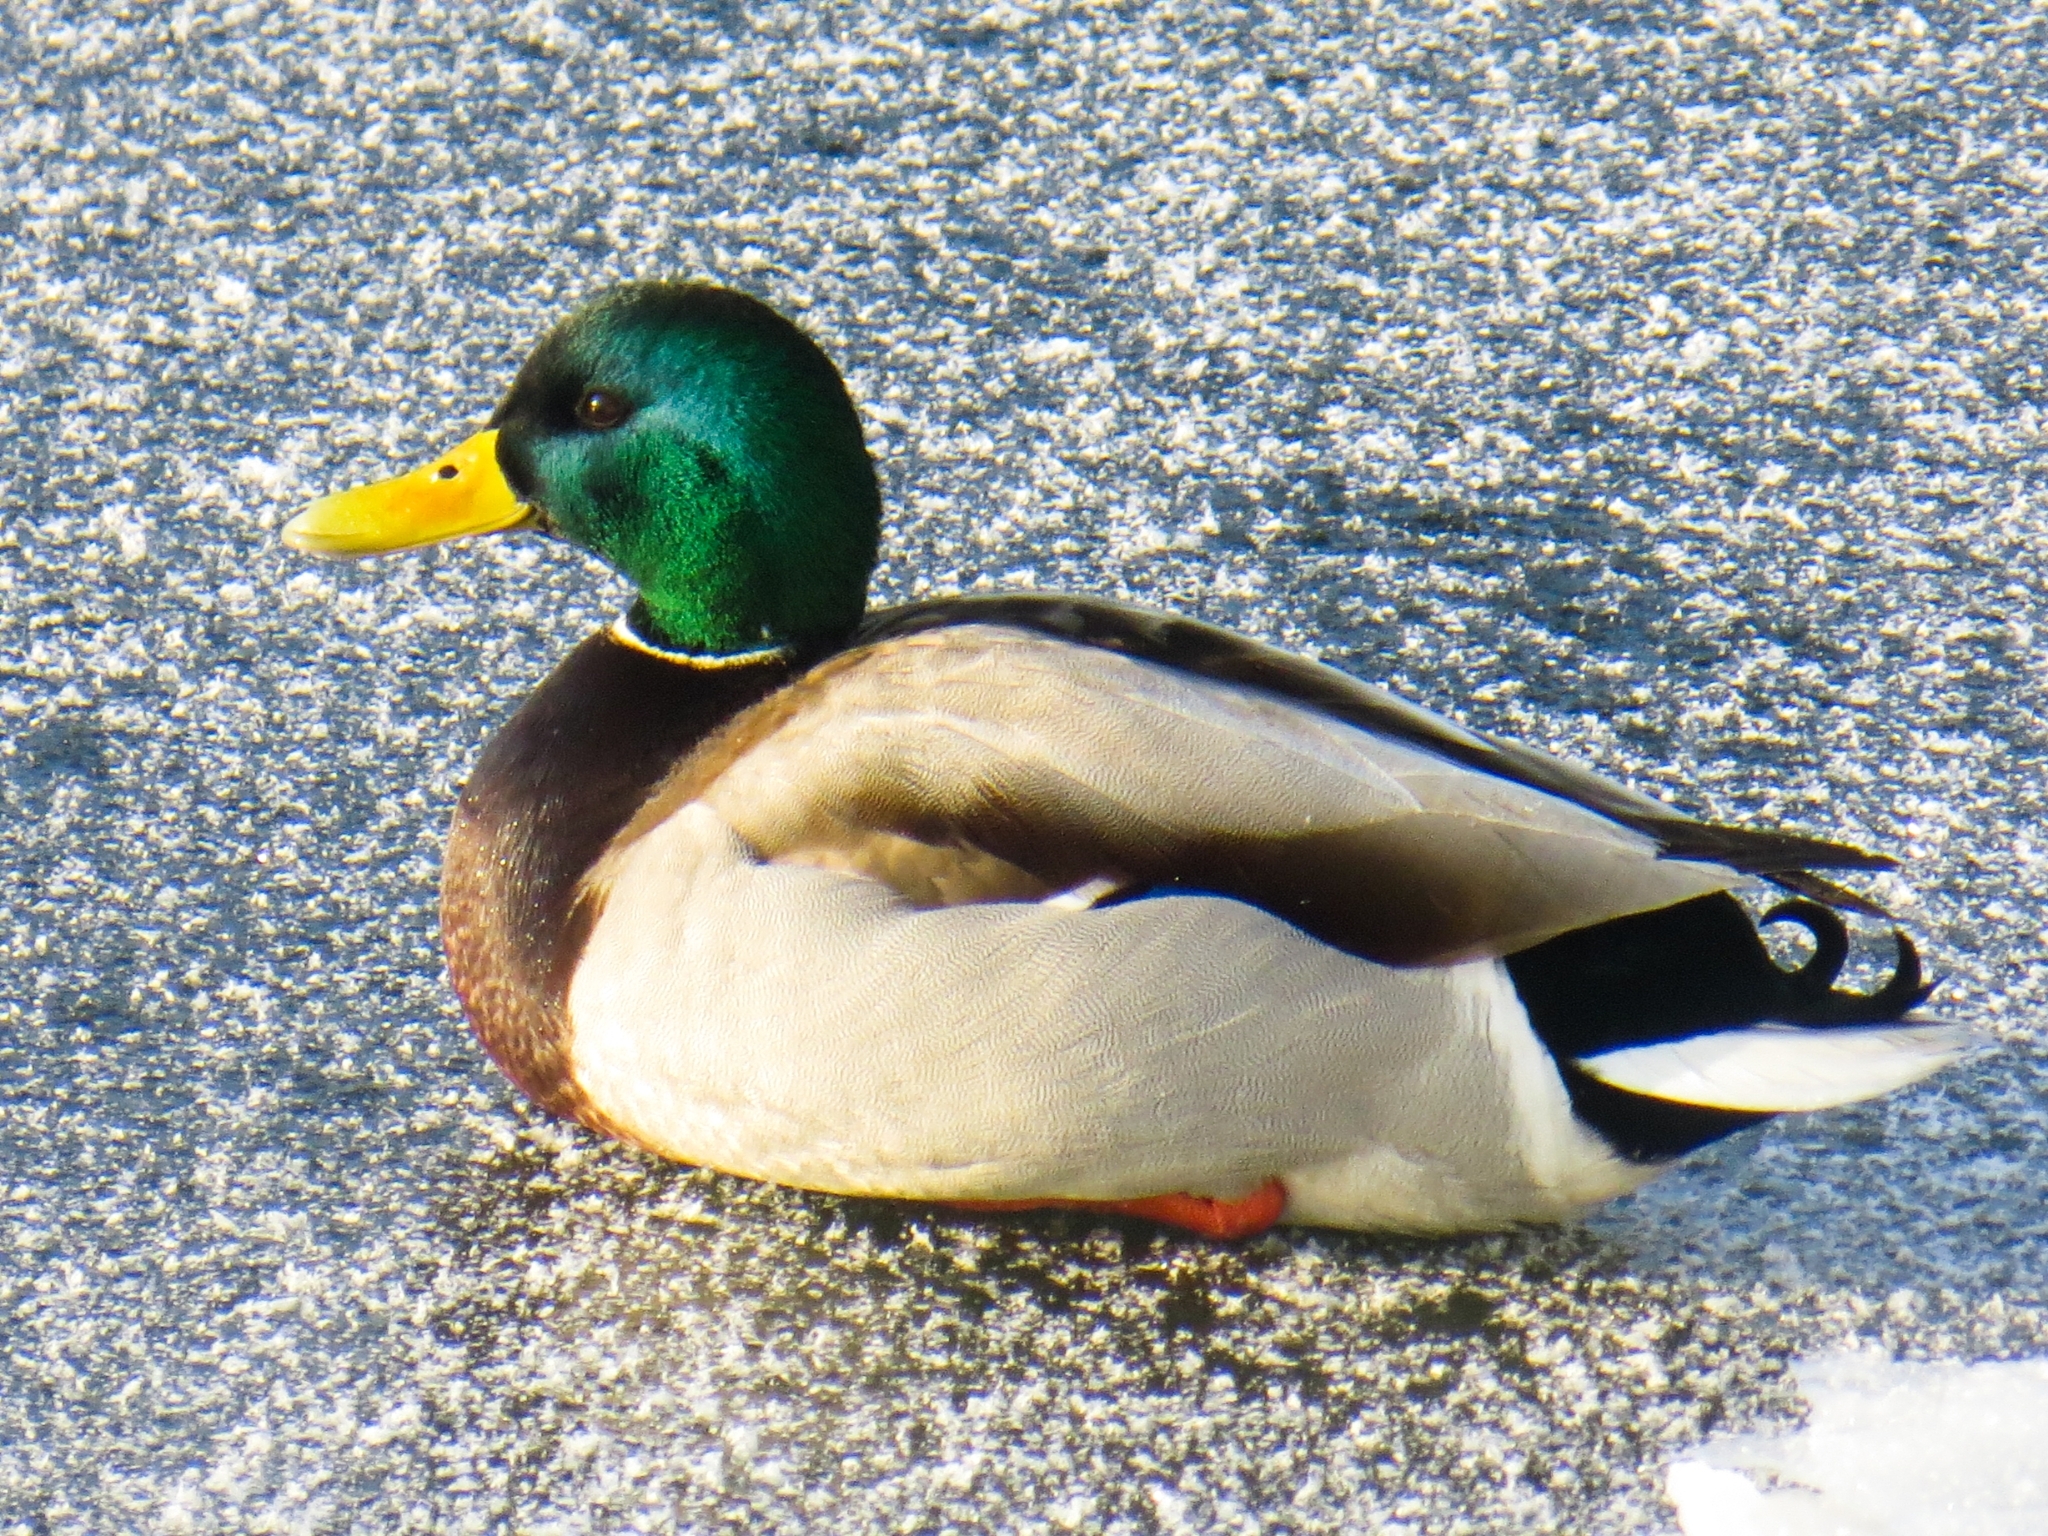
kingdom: Animalia
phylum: Chordata
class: Aves
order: Anseriformes
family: Anatidae
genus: Anas
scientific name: Anas platyrhynchos
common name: Mallard
